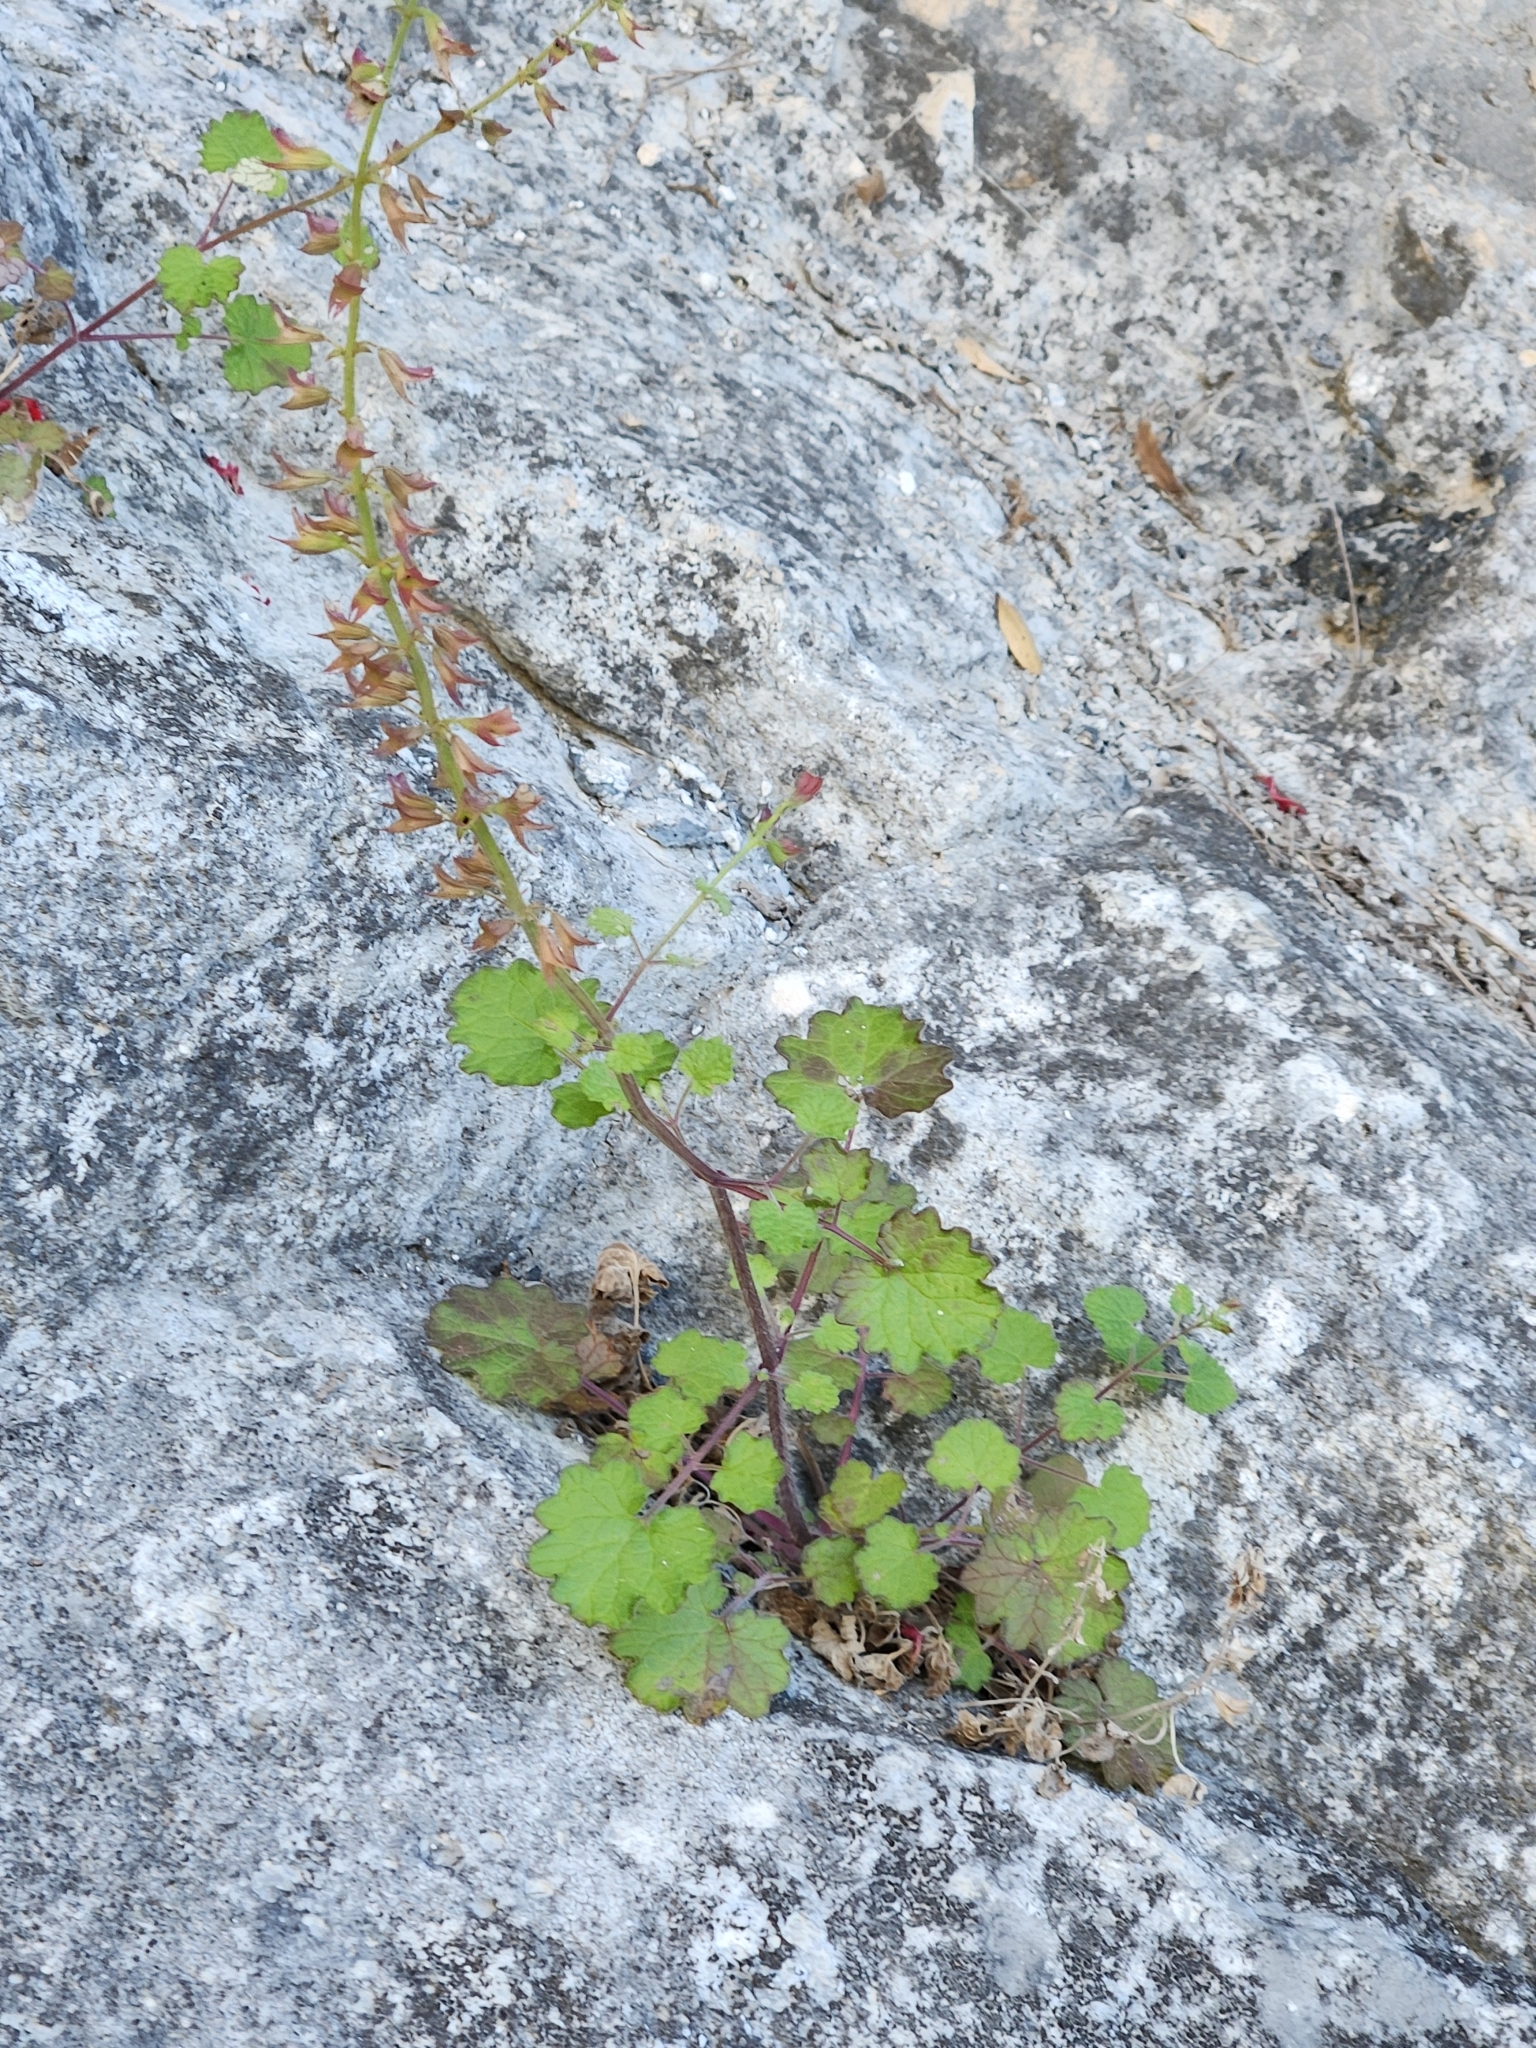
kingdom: Plantae
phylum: Tracheophyta
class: Magnoliopsida
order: Lamiales
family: Lamiaceae
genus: Salvia
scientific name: Salvia roemeriana
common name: Cedar sage
